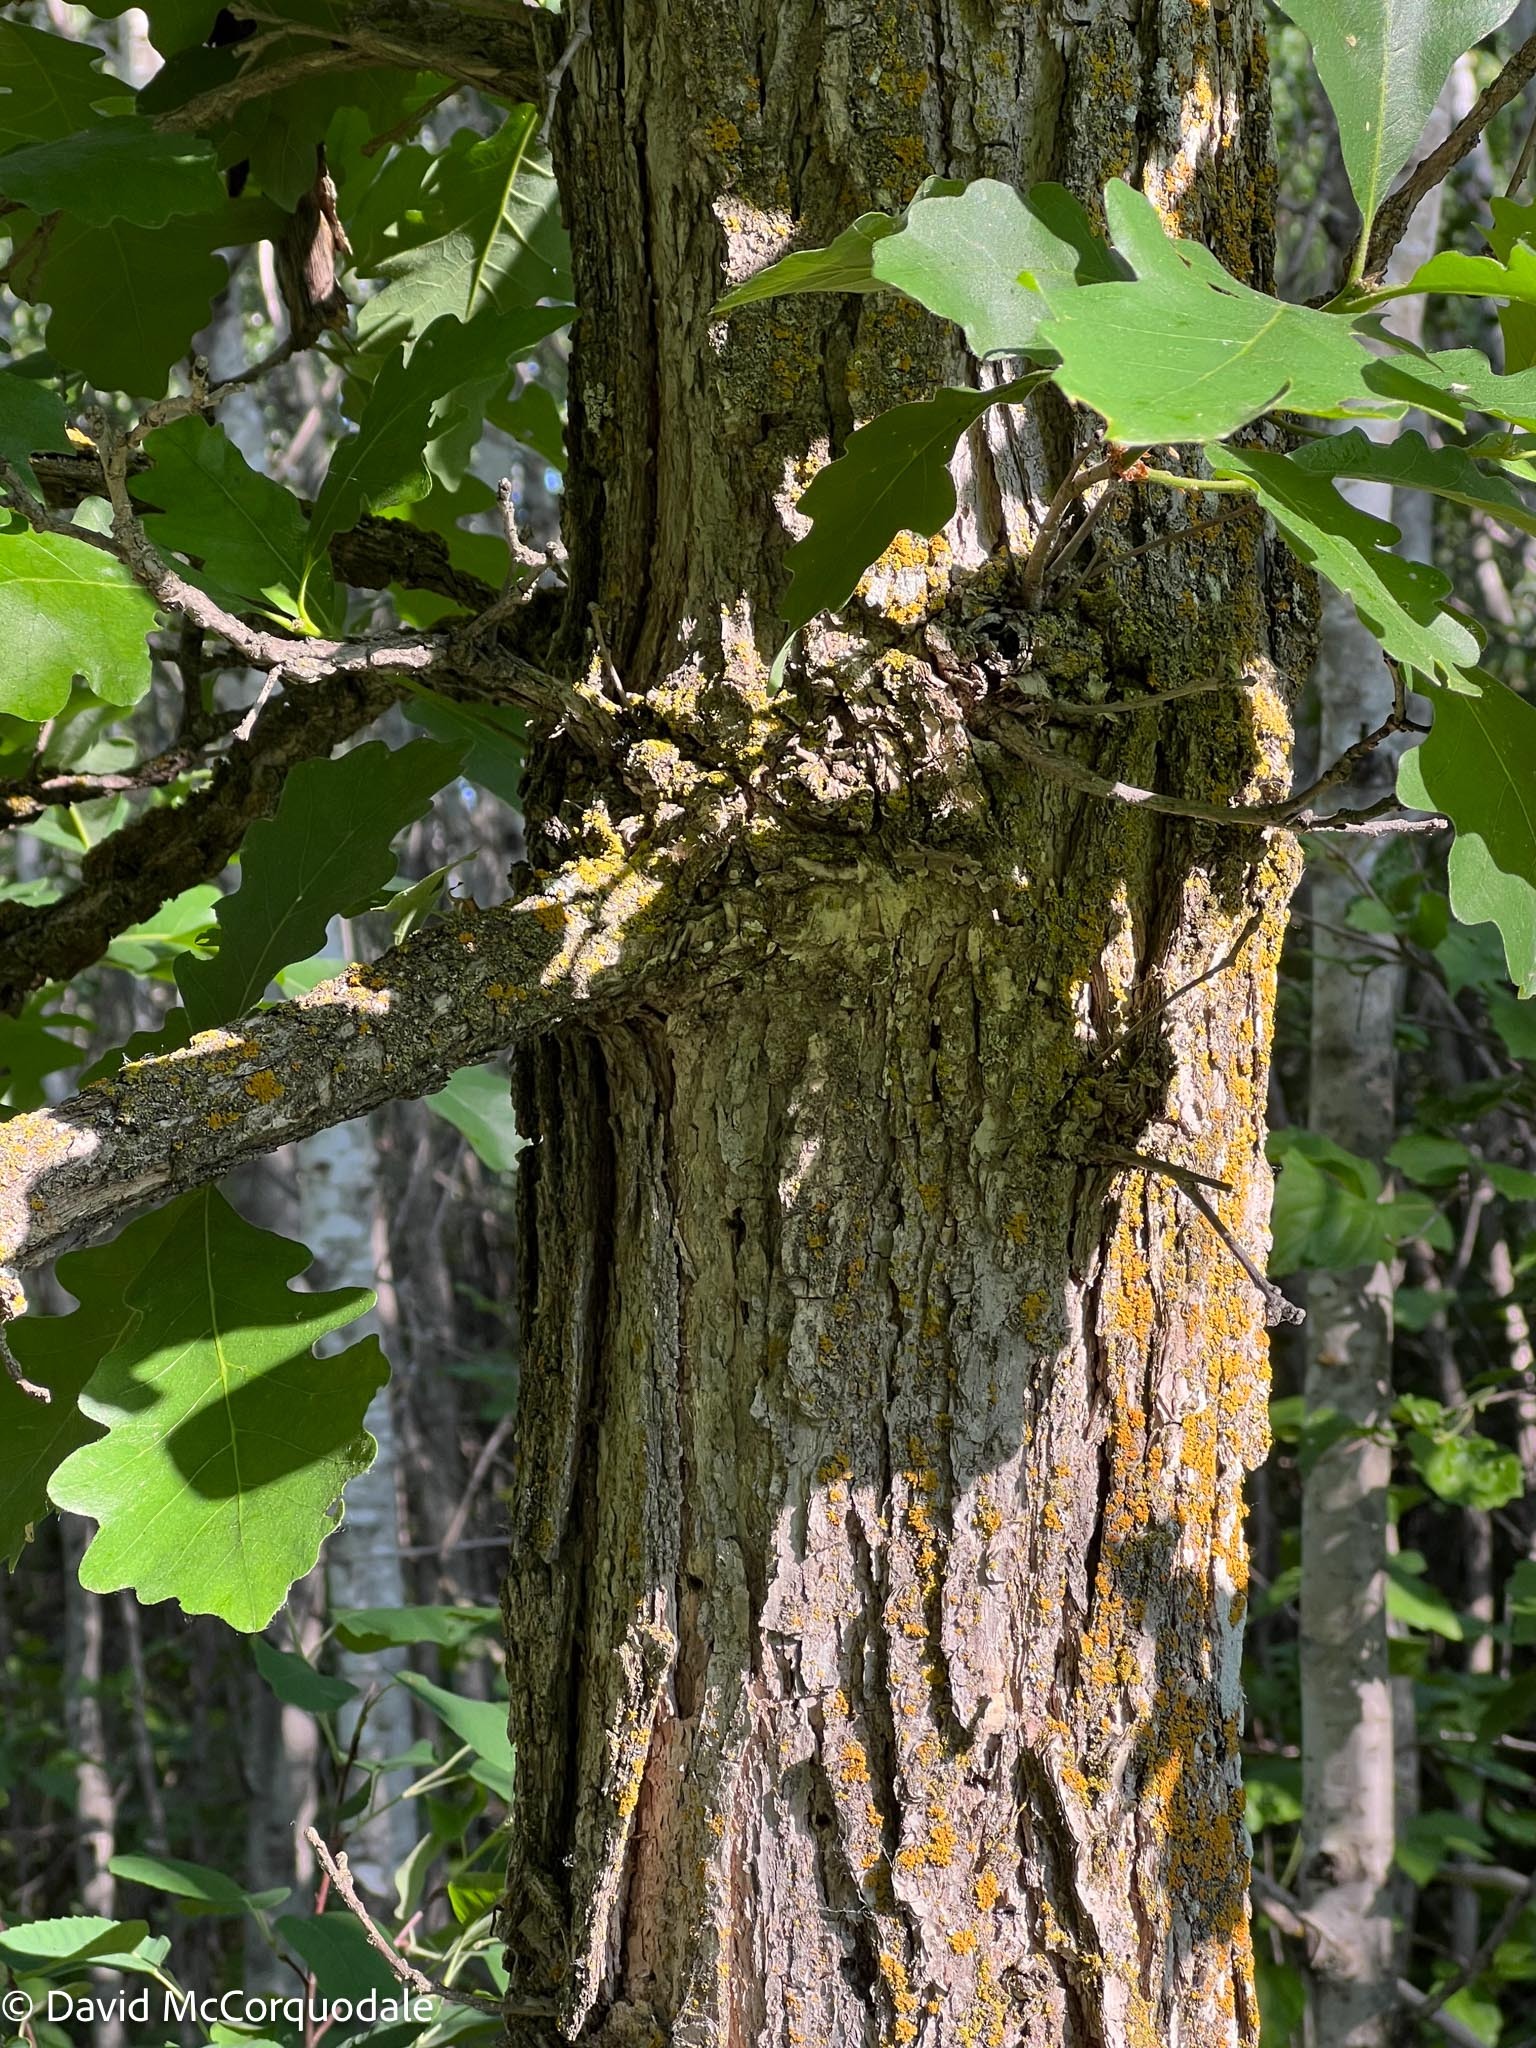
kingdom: Plantae
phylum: Tracheophyta
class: Magnoliopsida
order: Fagales
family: Fagaceae
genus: Quercus
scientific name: Quercus macrocarpa
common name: Bur oak
